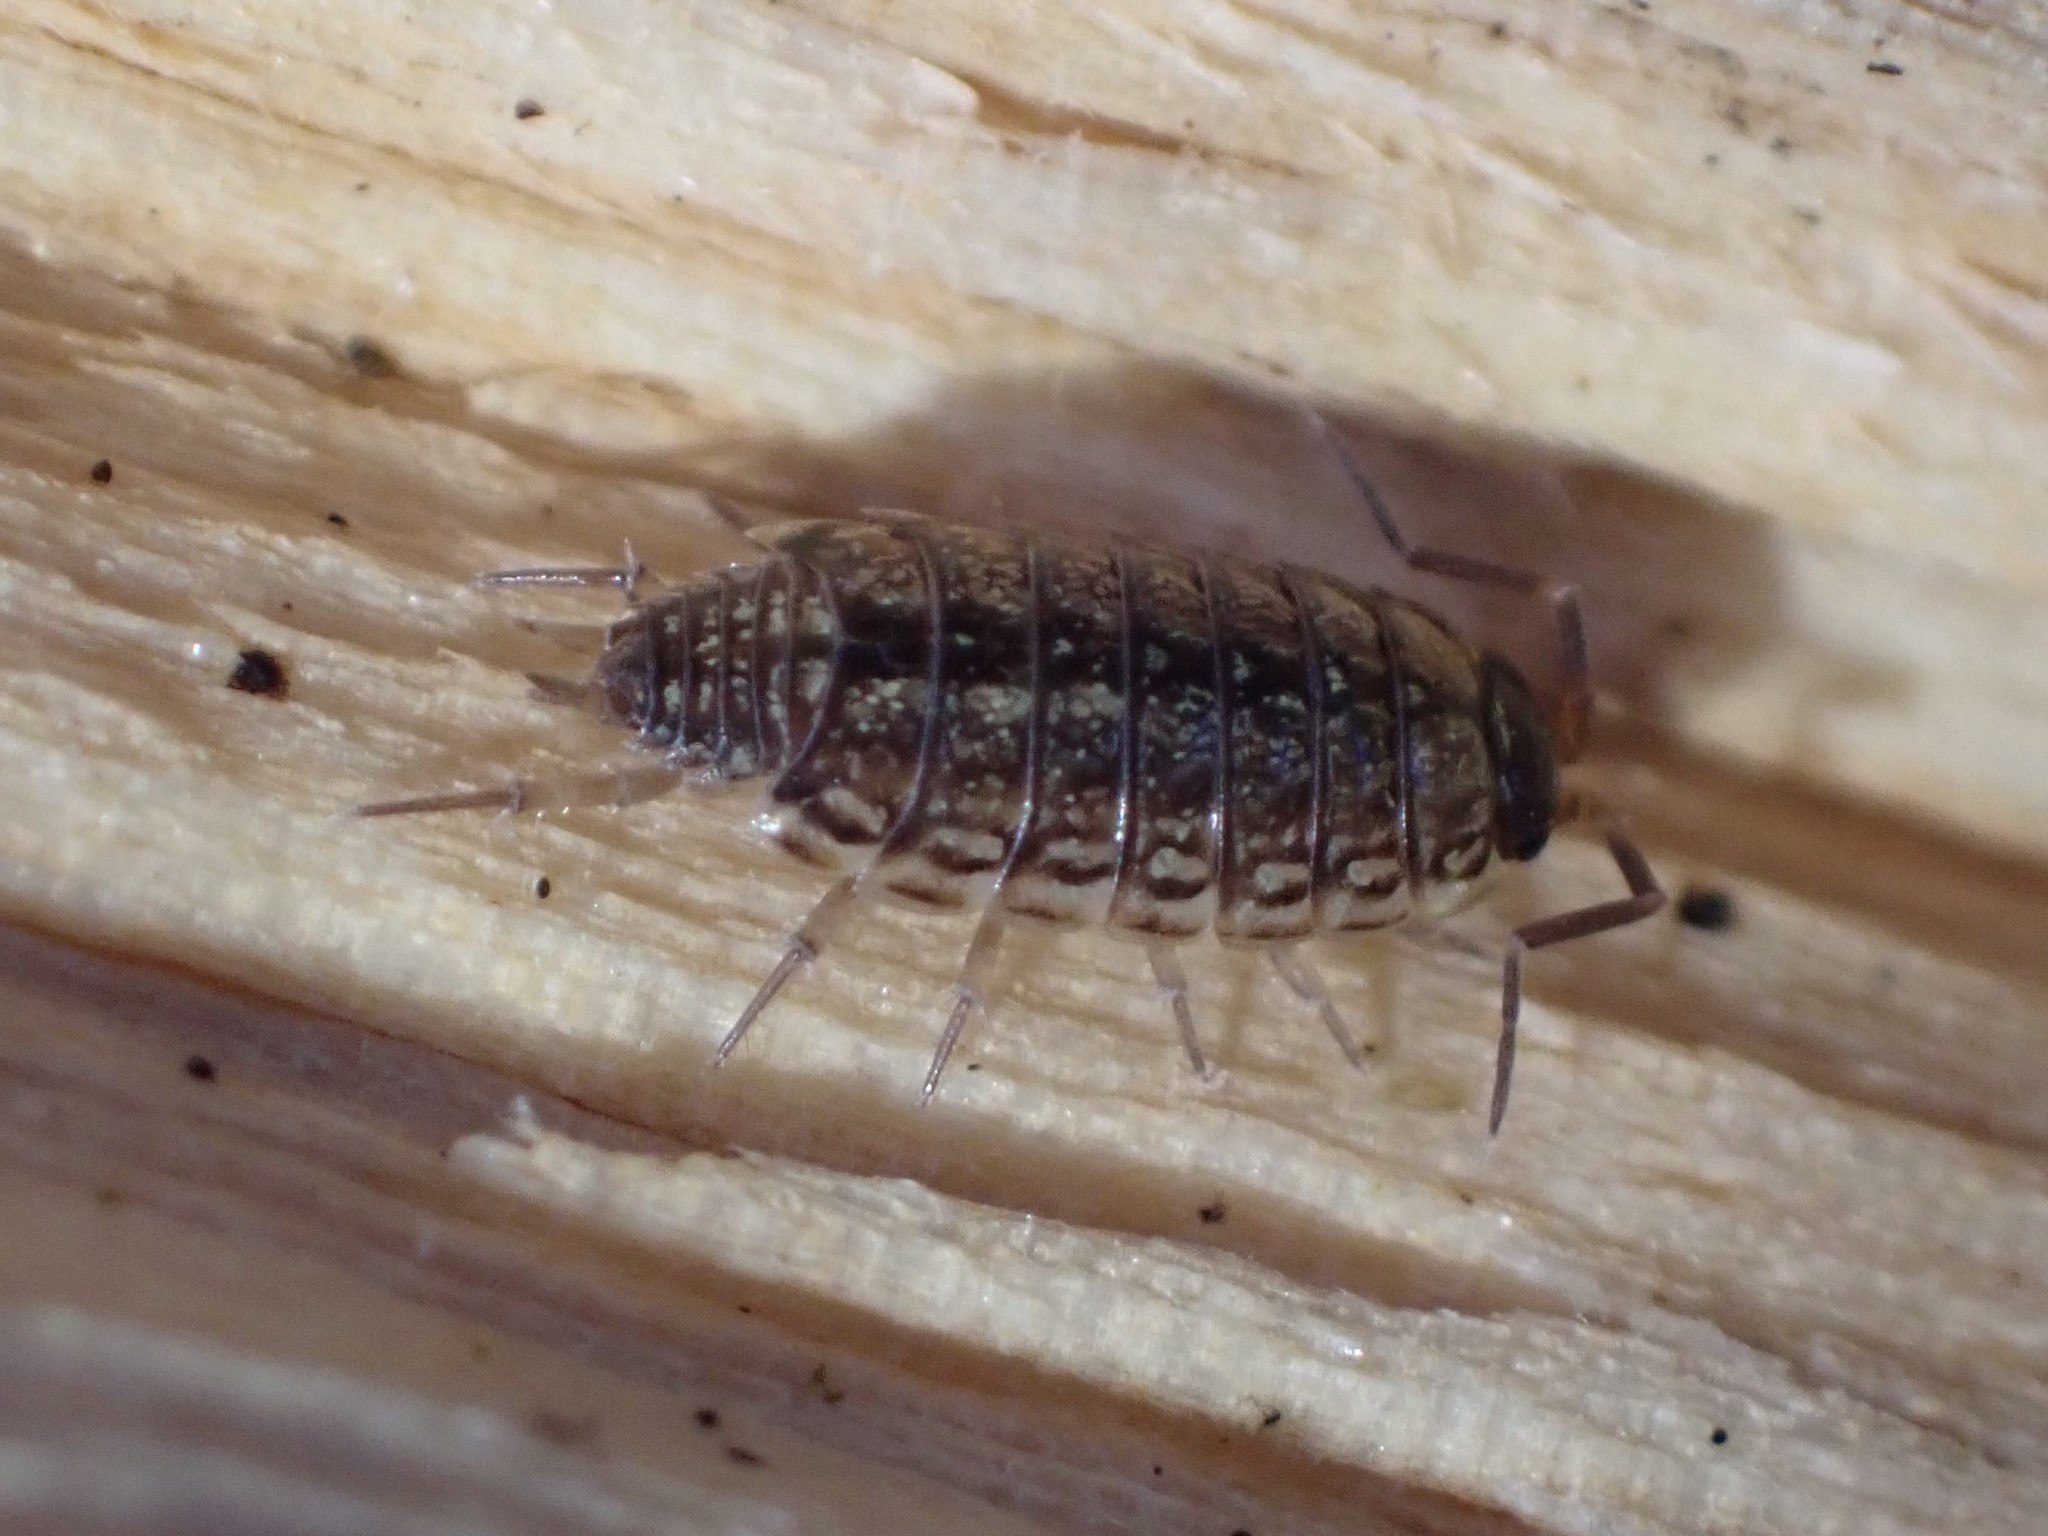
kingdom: Animalia
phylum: Arthropoda
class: Malacostraca
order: Isopoda
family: Philosciidae
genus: Philoscia
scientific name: Philoscia muscorum
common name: Common striped woodlouse
